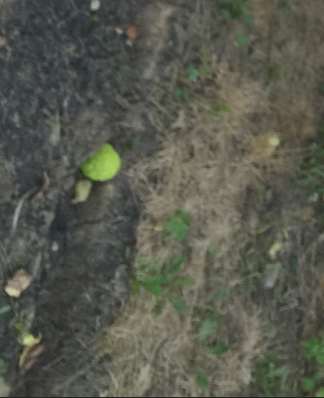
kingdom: Plantae
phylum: Tracheophyta
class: Magnoliopsida
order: Rosales
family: Moraceae
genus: Maclura
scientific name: Maclura pomifera
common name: Osage-orange
